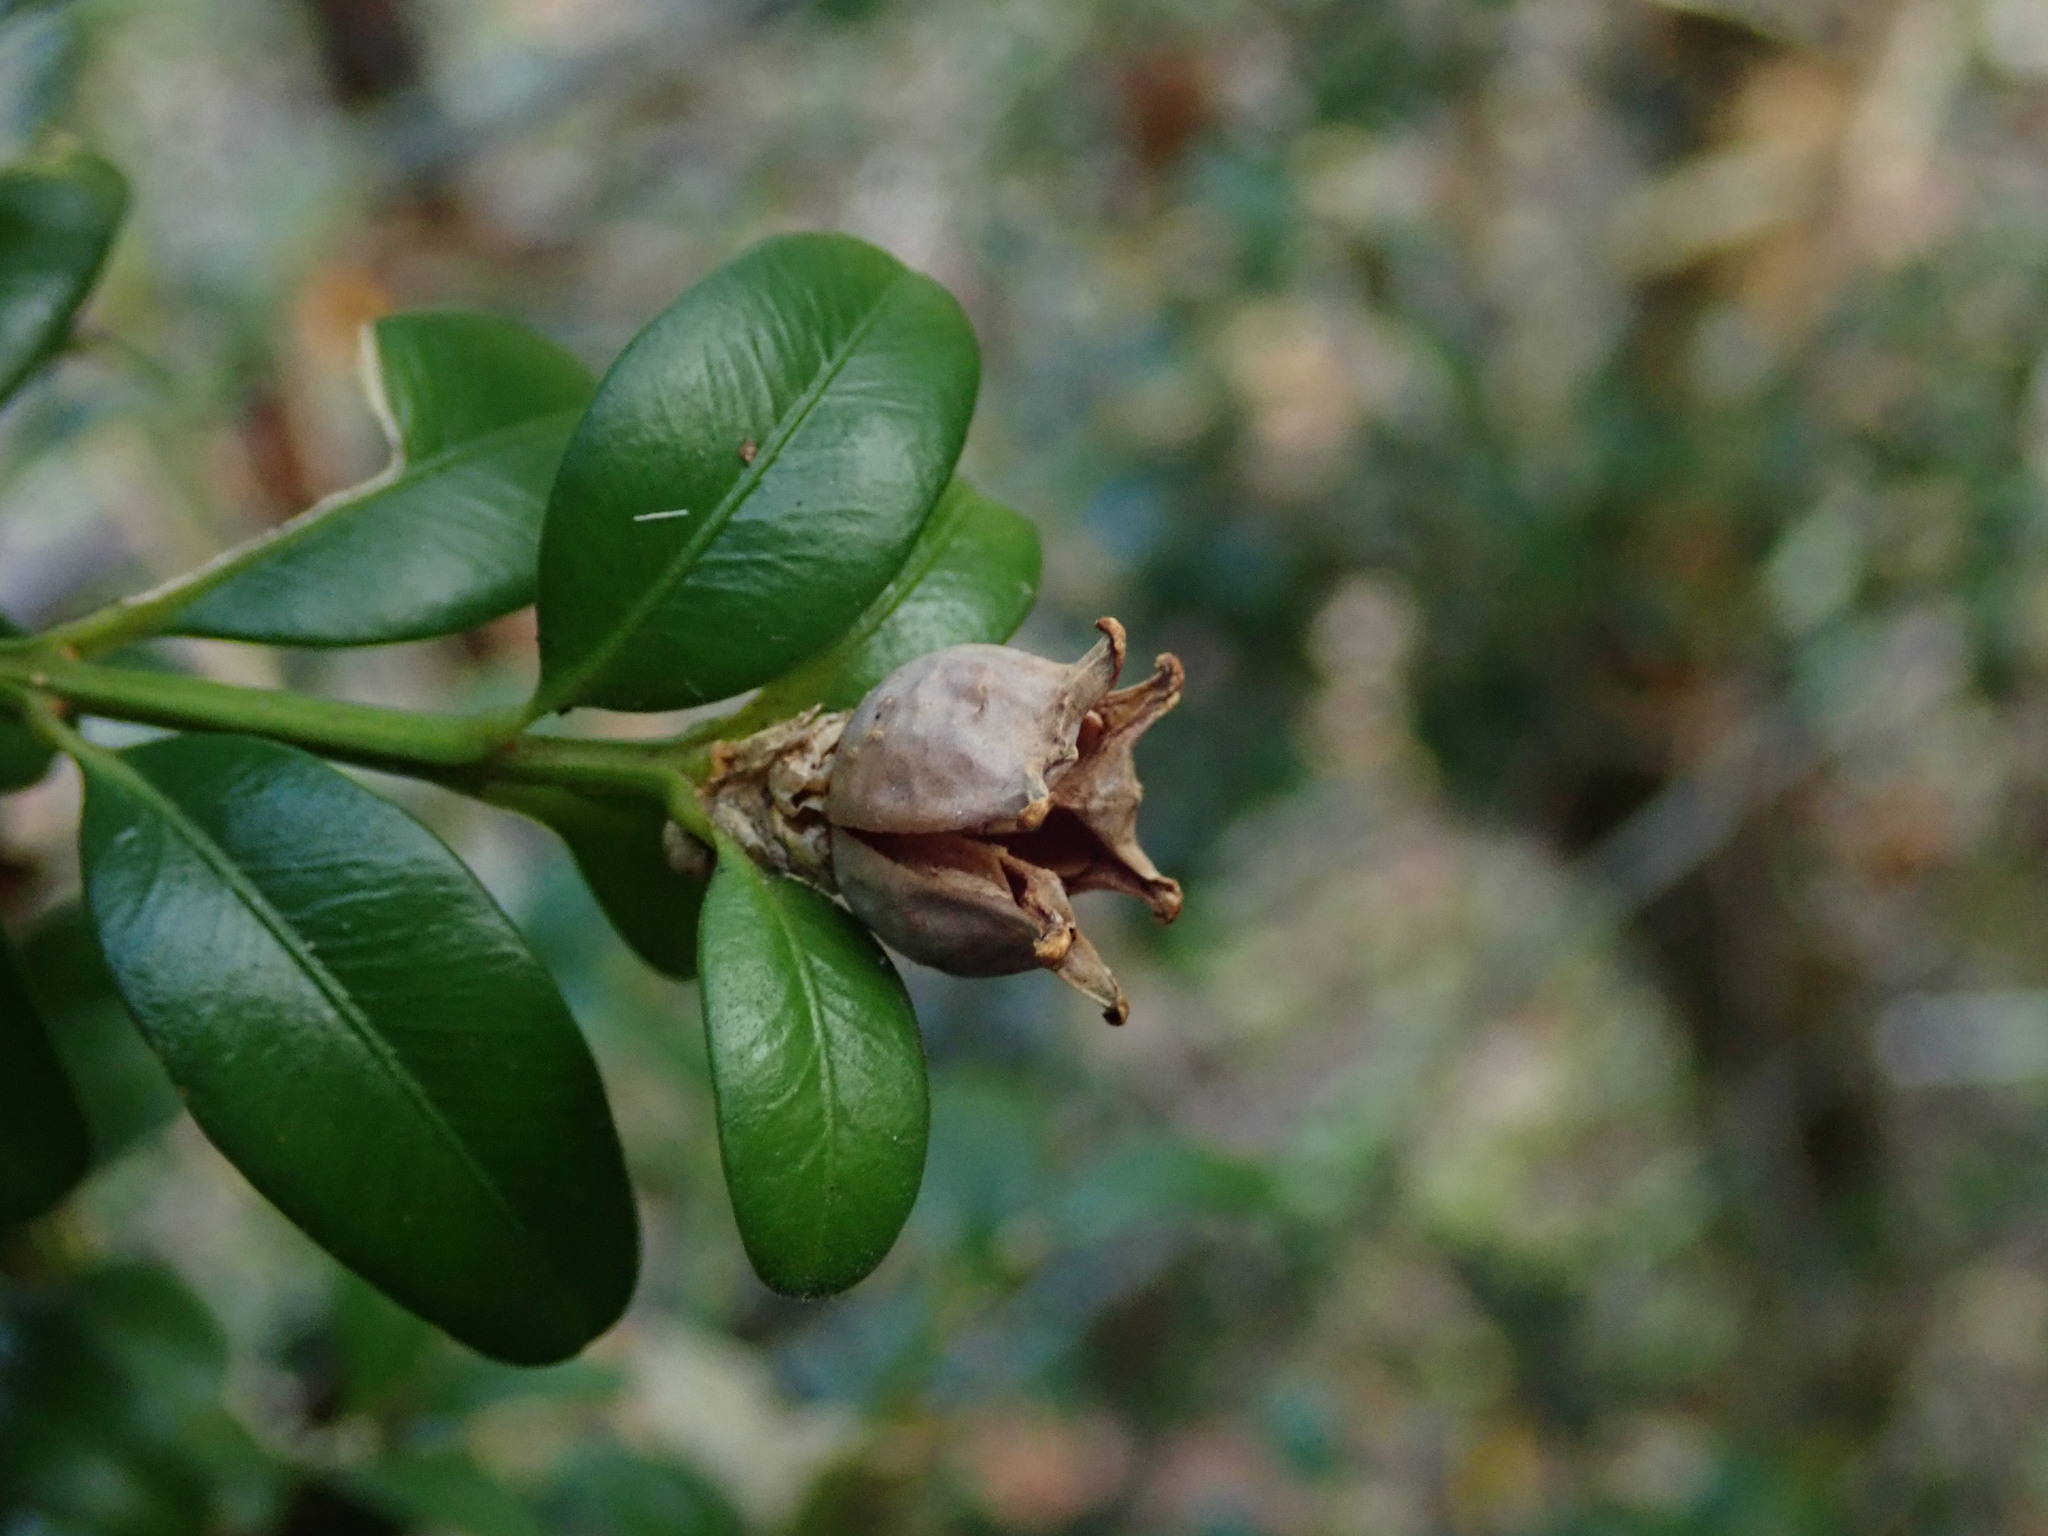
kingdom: Plantae
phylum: Tracheophyta
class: Magnoliopsida
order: Buxales
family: Buxaceae
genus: Buxus
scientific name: Buxus sempervirens
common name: Box
